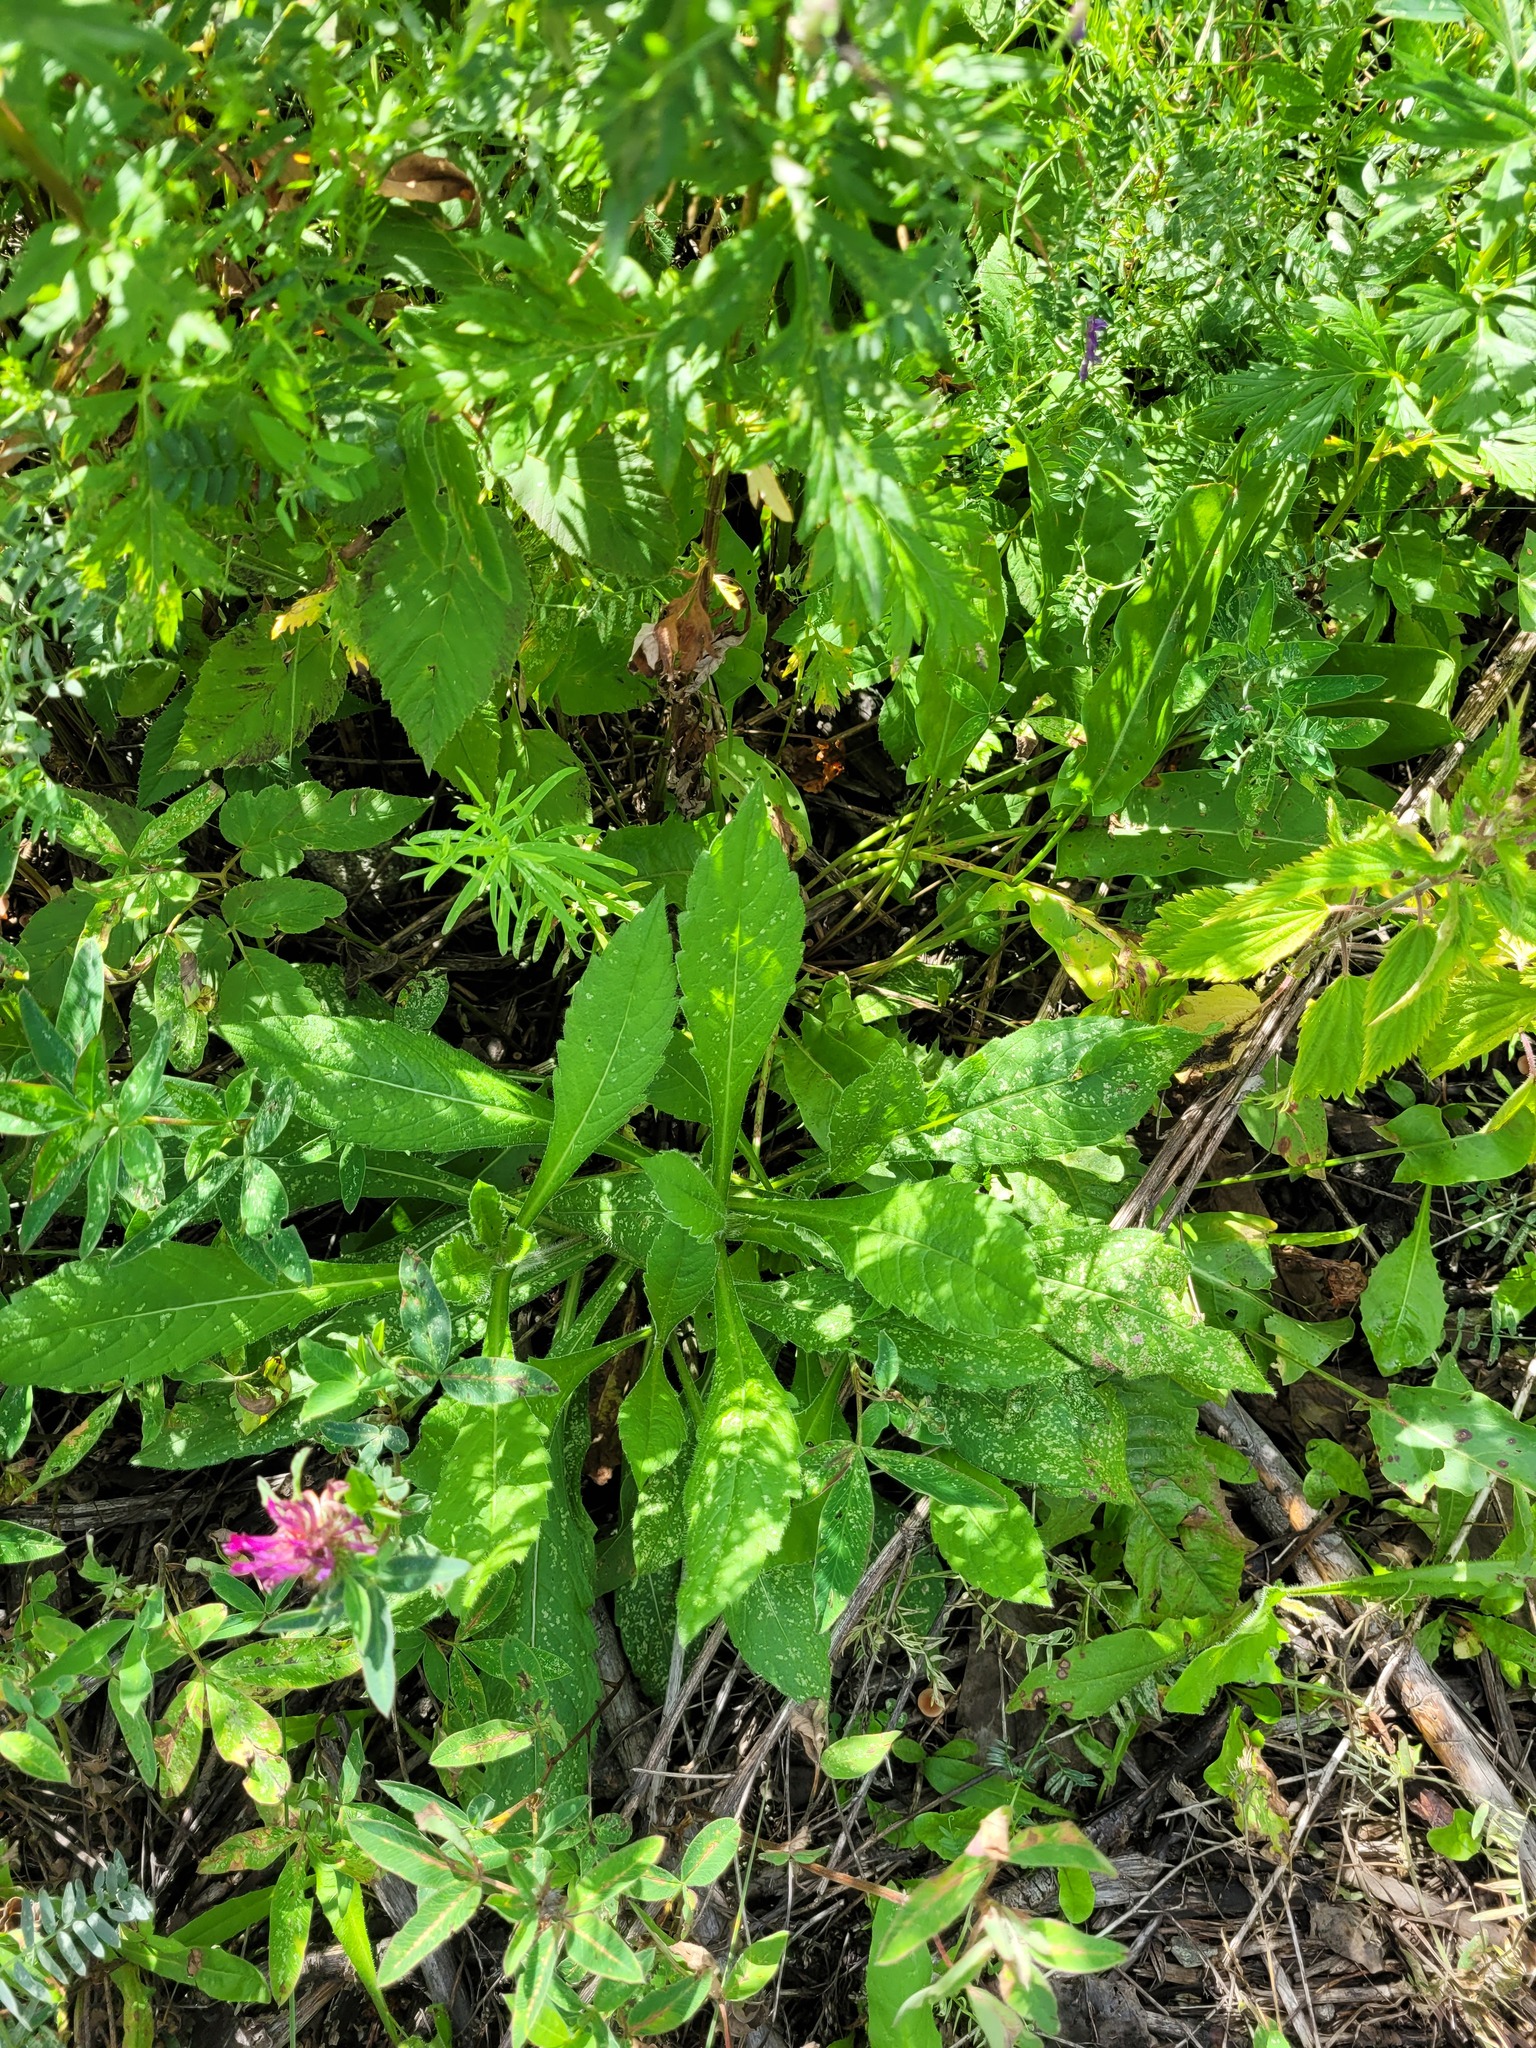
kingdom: Plantae
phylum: Tracheophyta
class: Magnoliopsida
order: Dipsacales
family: Caprifoliaceae
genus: Knautia
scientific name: Knautia arvensis
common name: Field scabiosa
